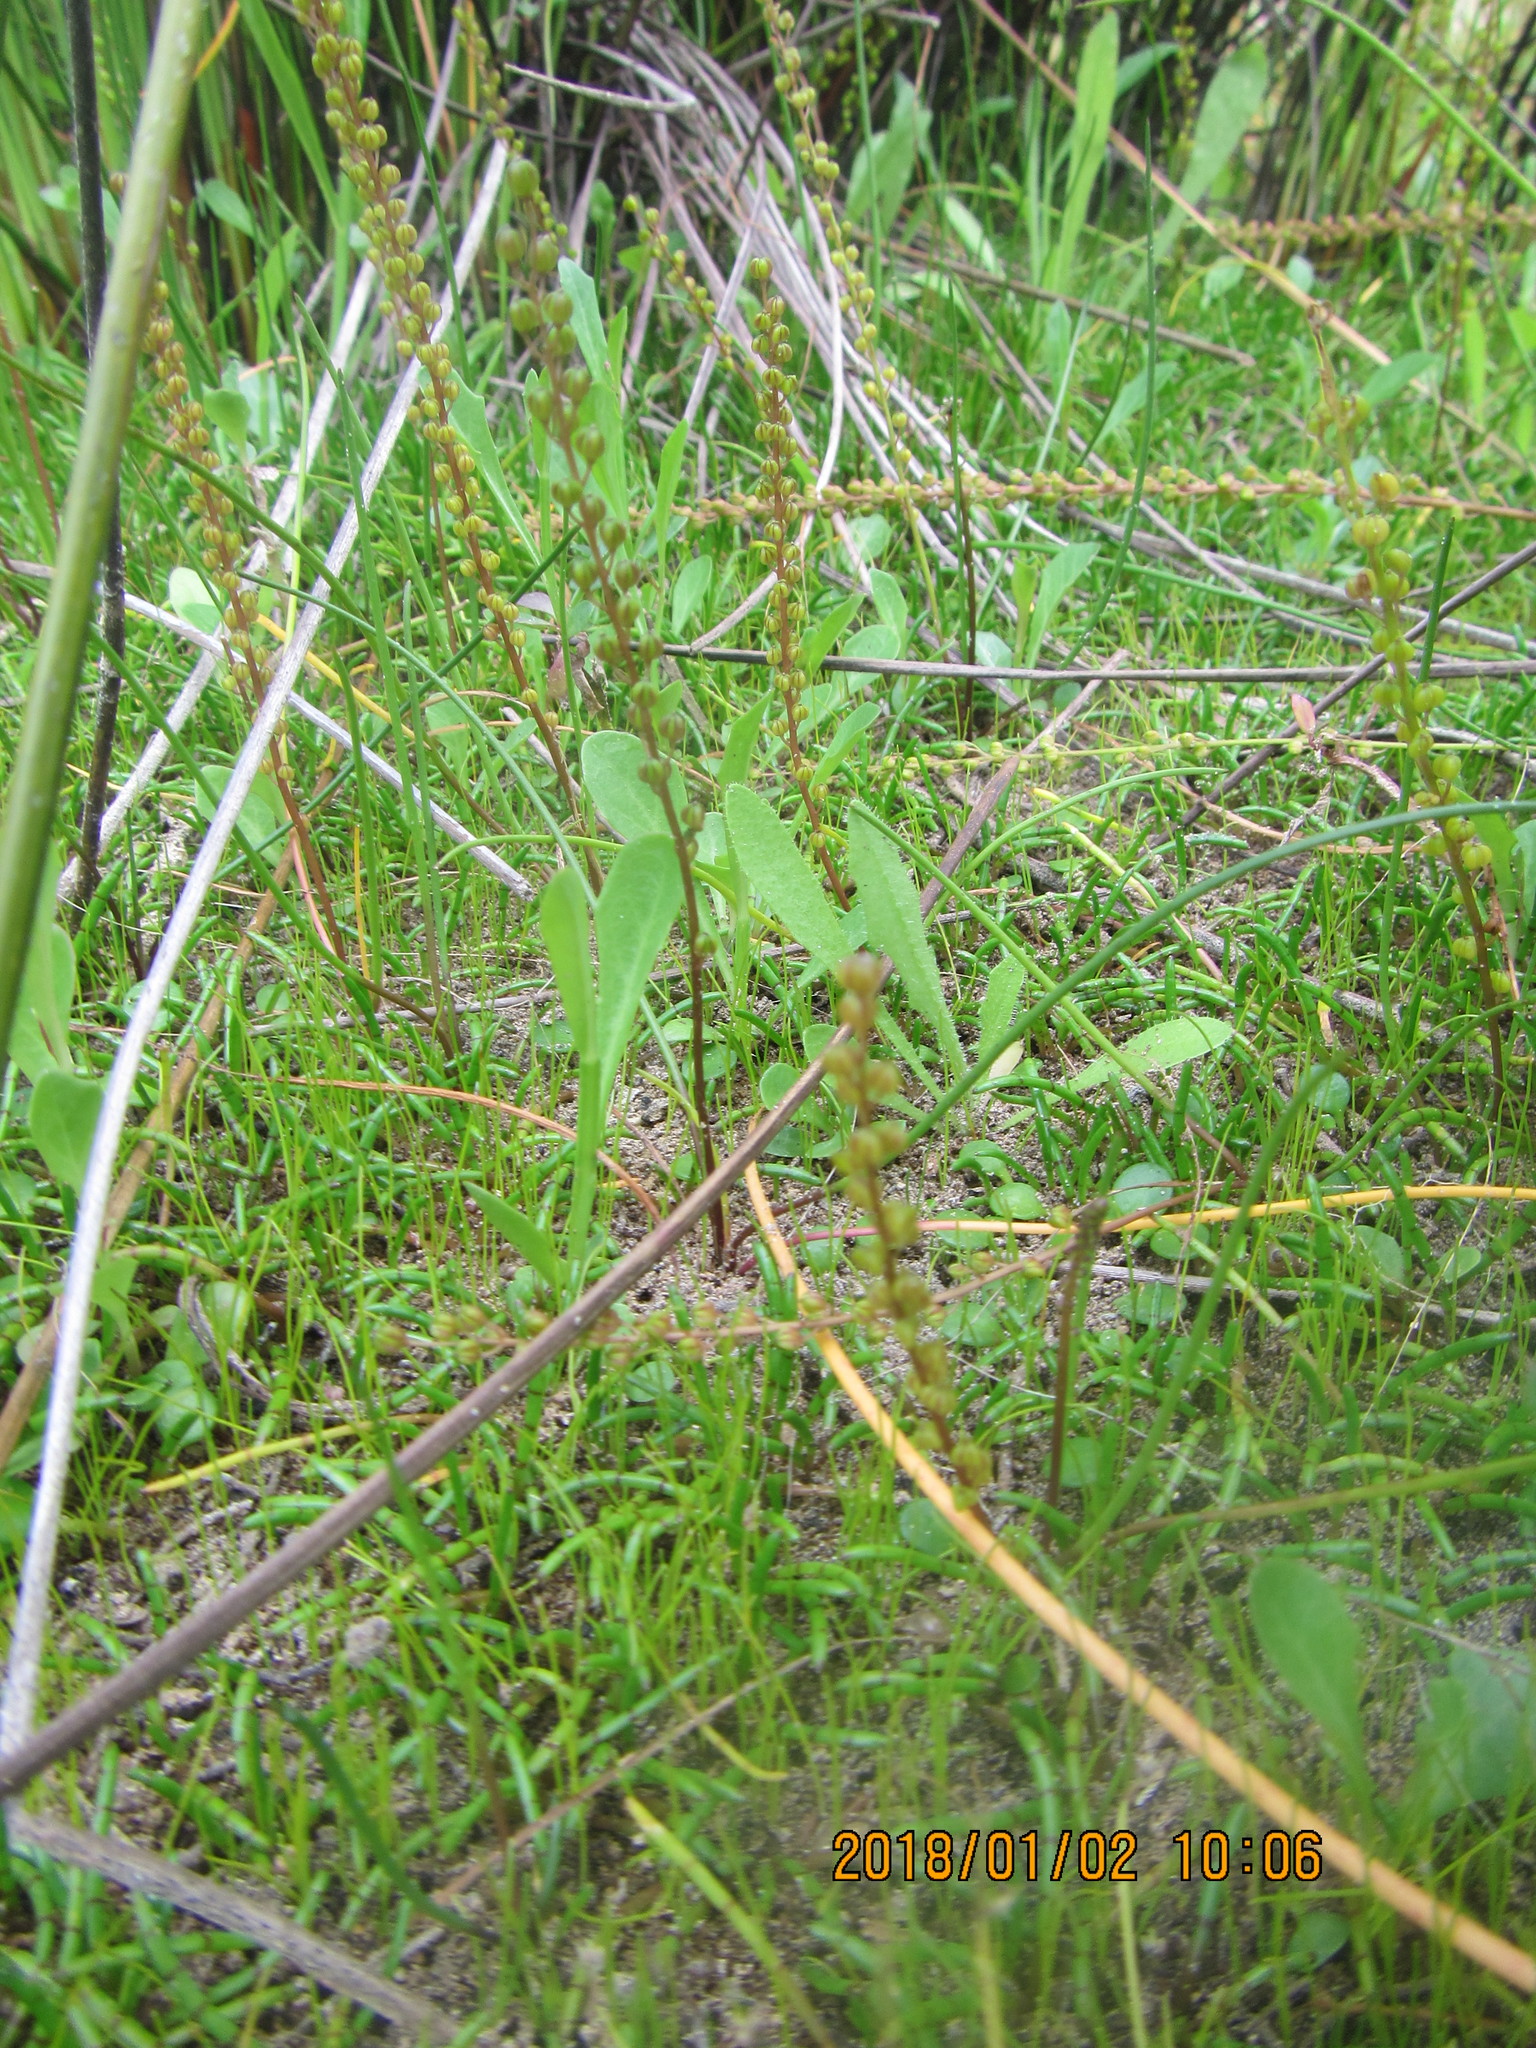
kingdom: Plantae
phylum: Tracheophyta
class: Liliopsida
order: Alismatales
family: Juncaginaceae
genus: Triglochin
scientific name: Triglochin striata
